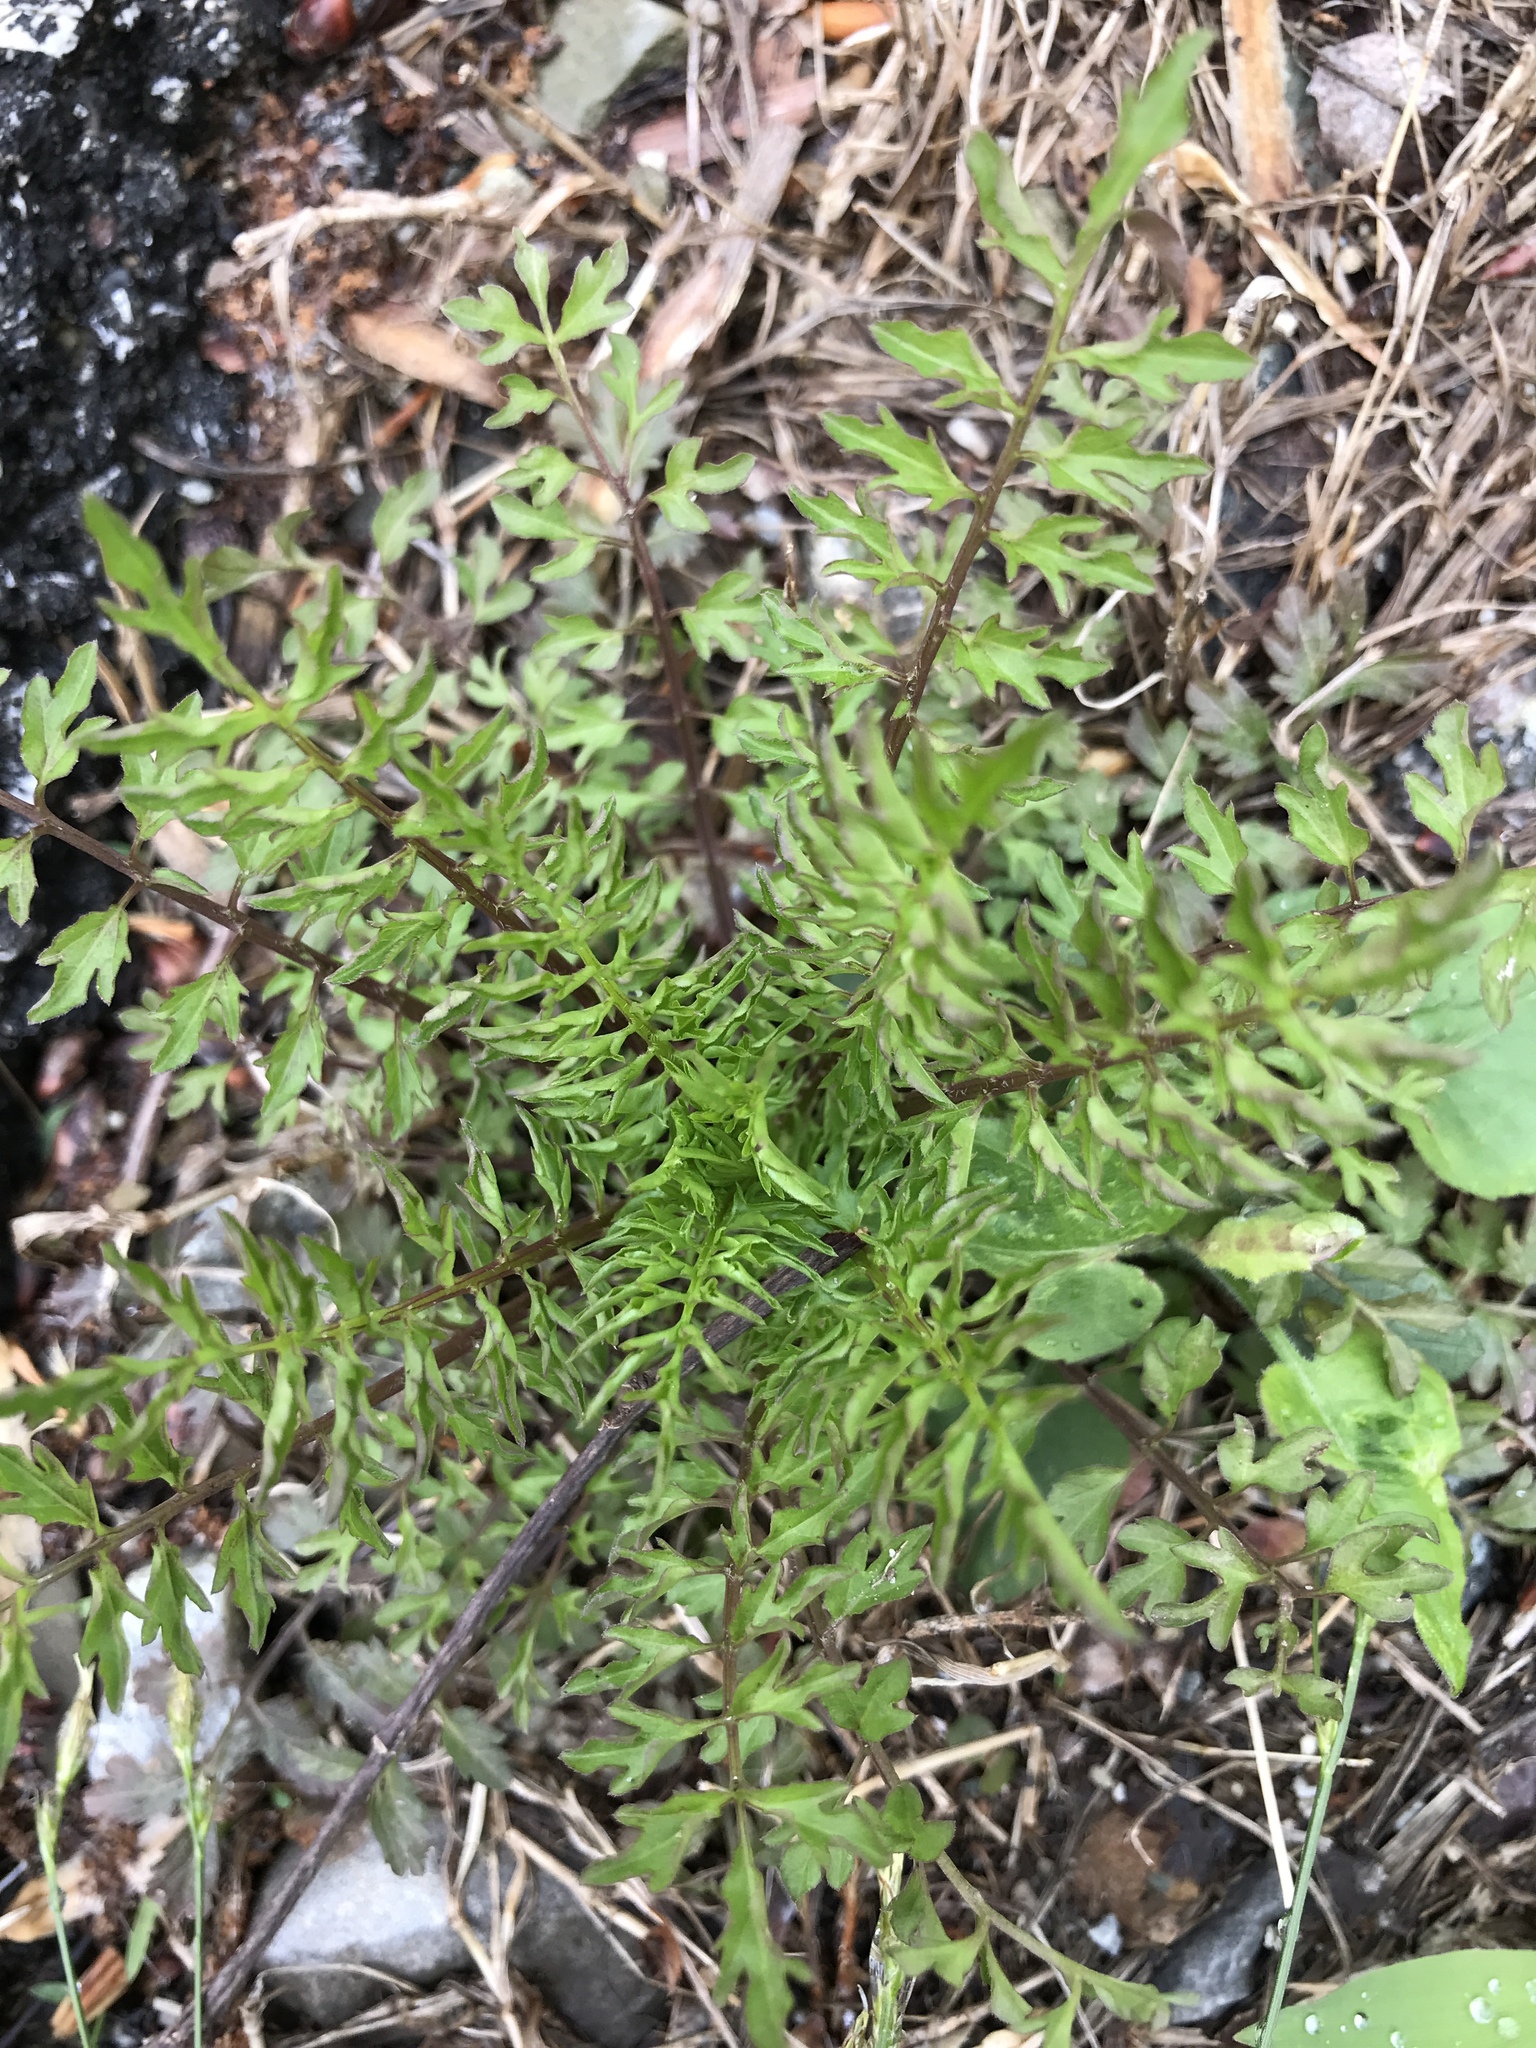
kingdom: Plantae
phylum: Tracheophyta
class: Magnoliopsida
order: Brassicales
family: Brassicaceae
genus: Cardamine
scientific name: Cardamine impatiens
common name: Narrow-leaved bitter-cress
